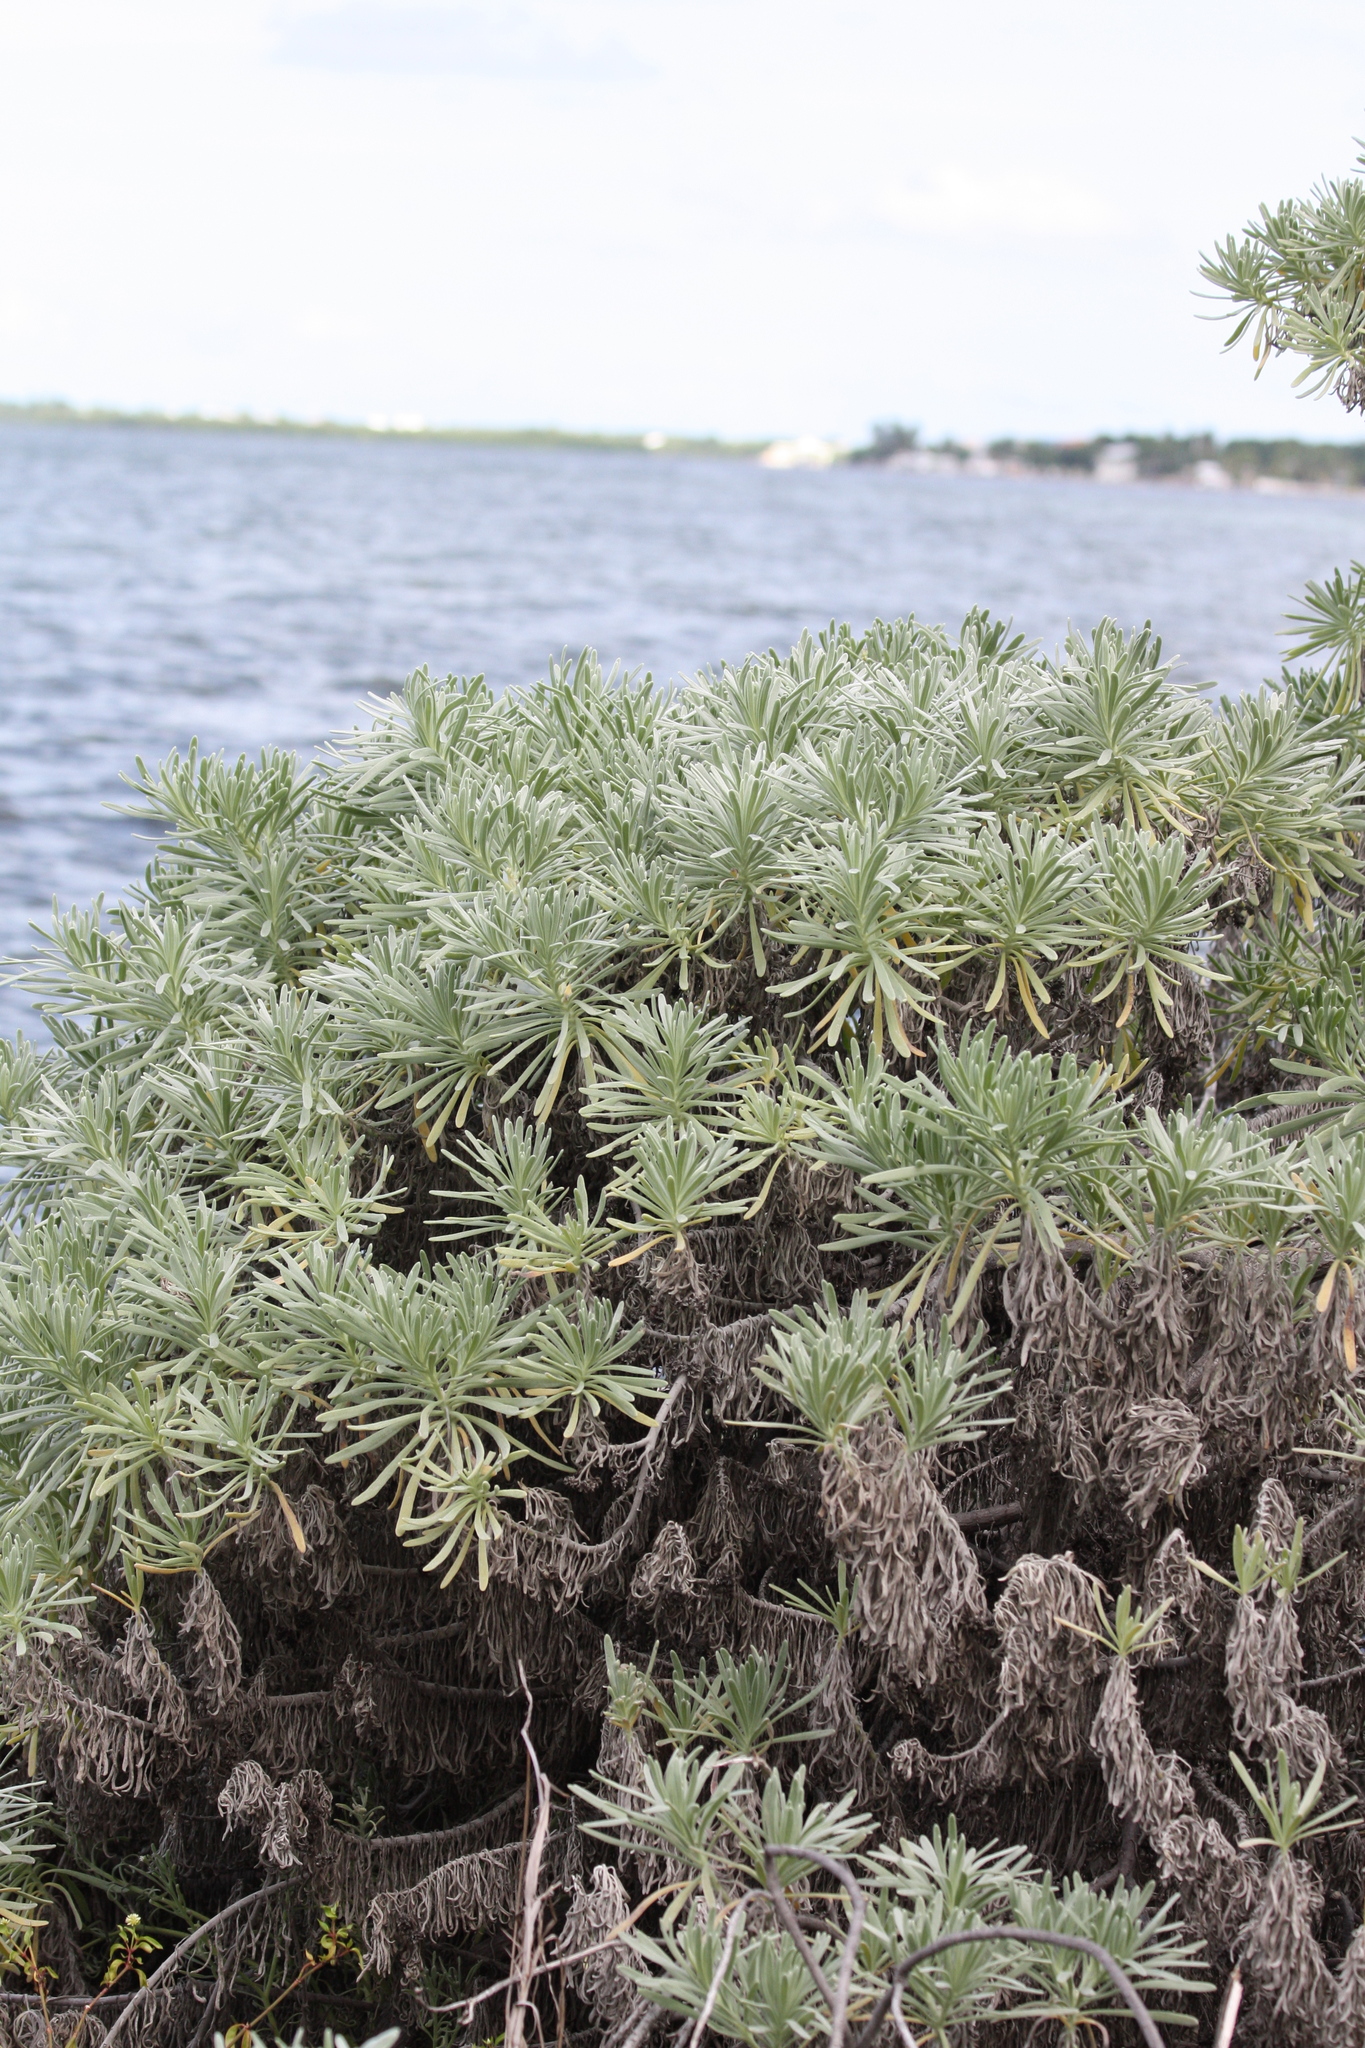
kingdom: Plantae
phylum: Tracheophyta
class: Magnoliopsida
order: Boraginales
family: Heliotropiaceae
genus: Tournefortia
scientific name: Tournefortia gnaphalodes
